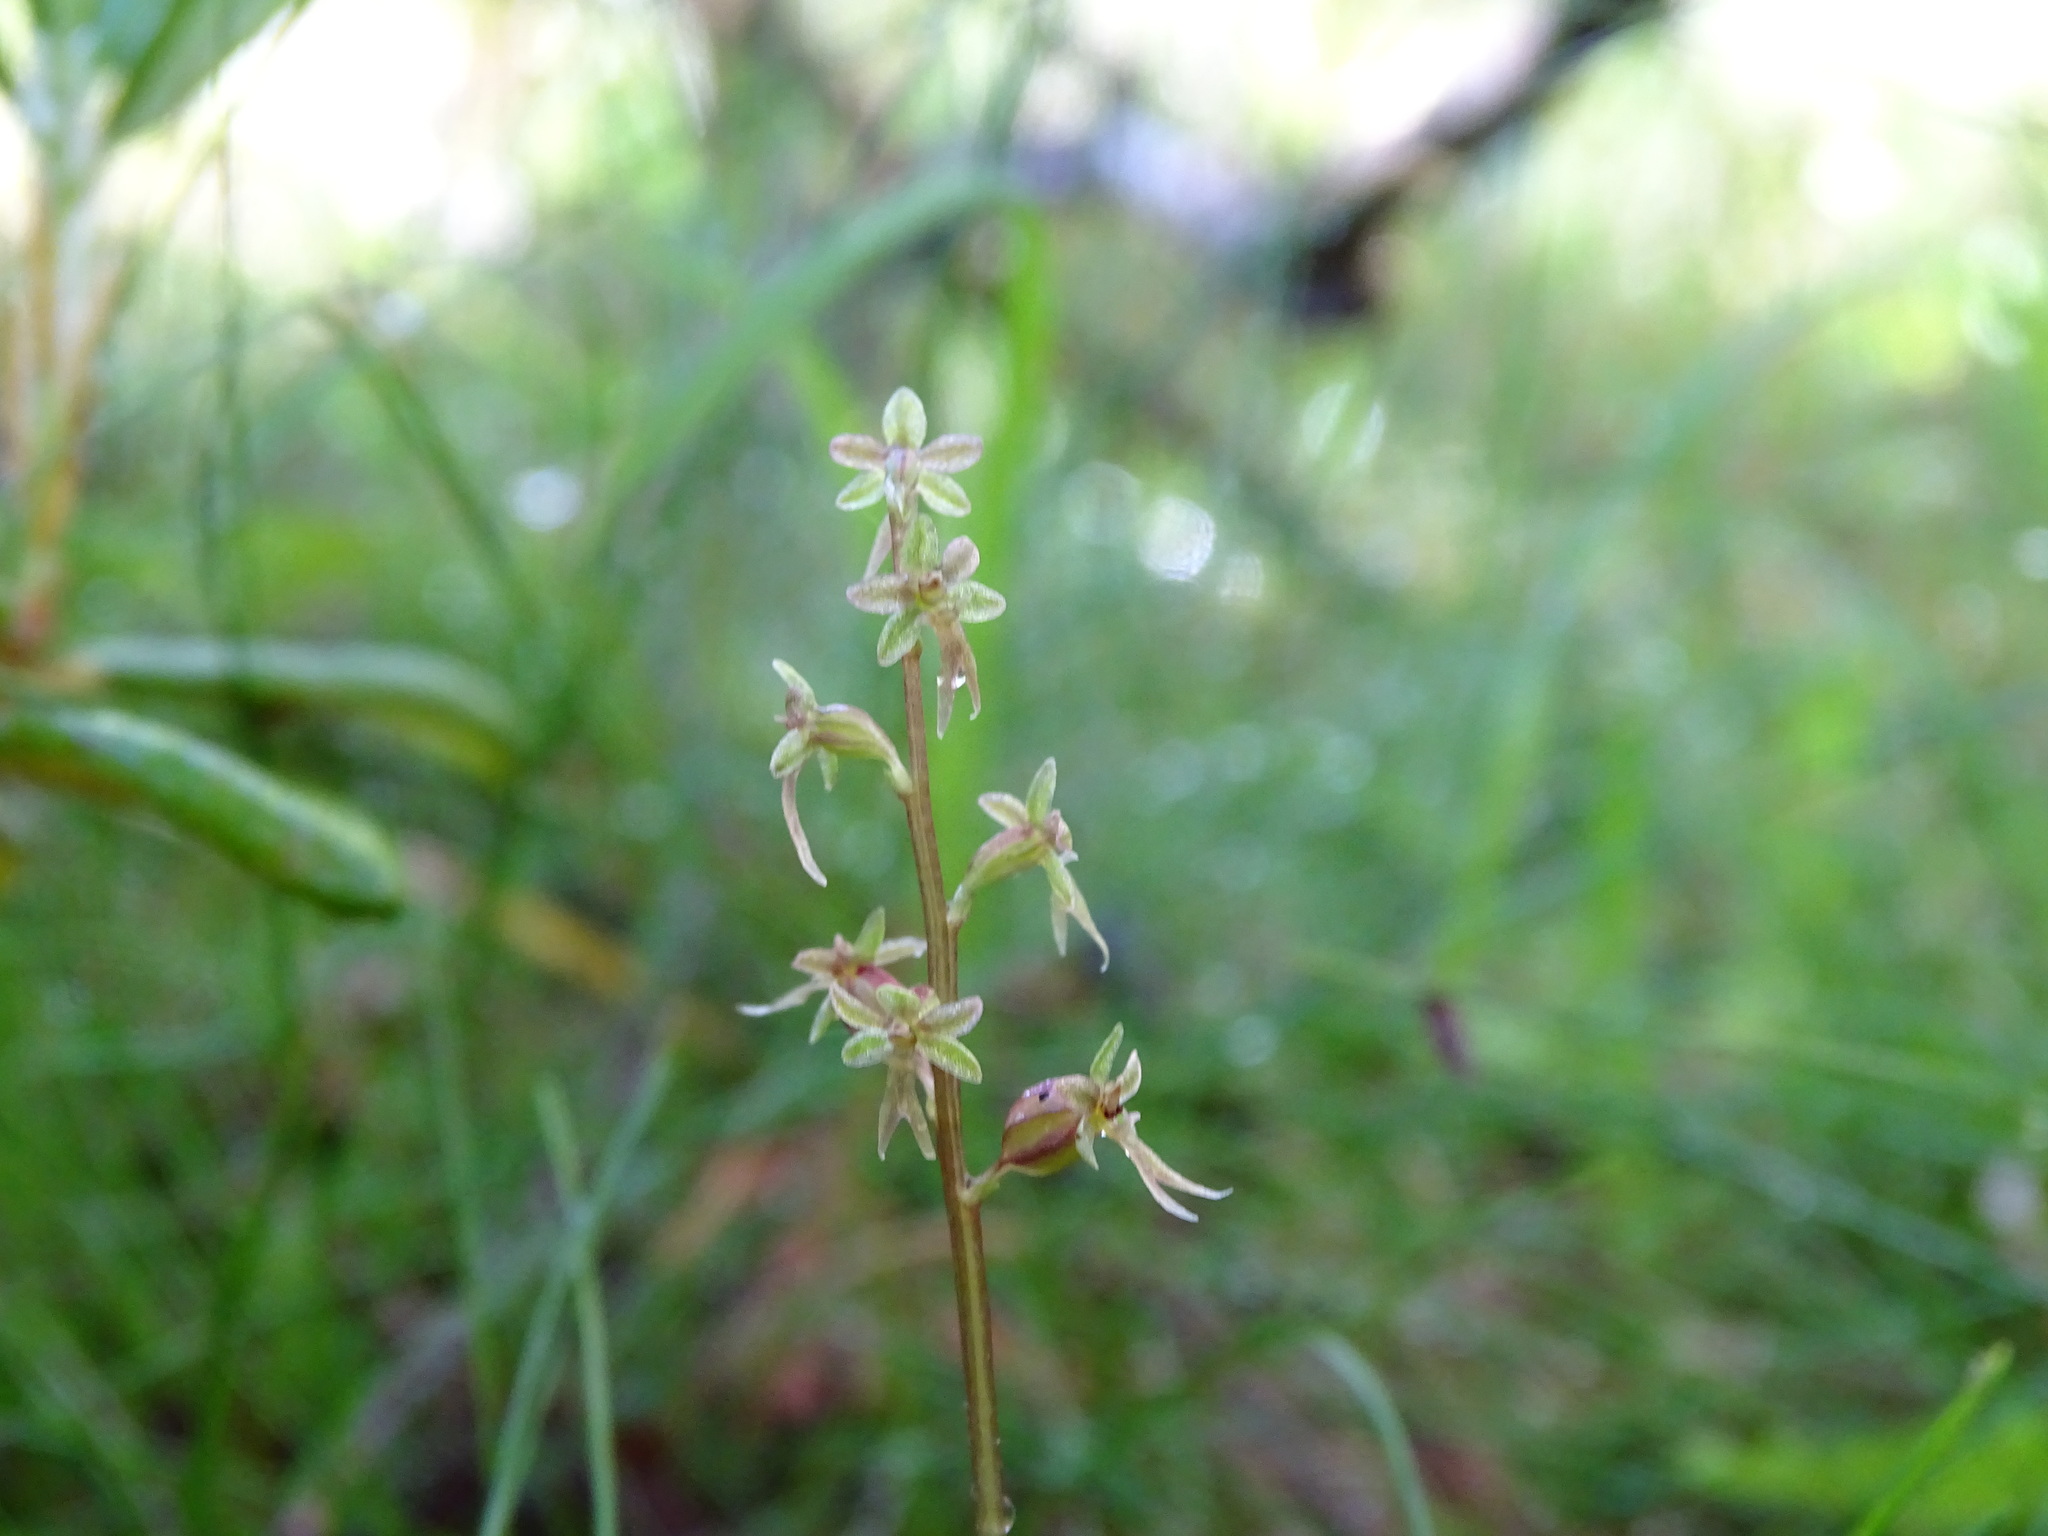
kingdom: Plantae
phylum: Tracheophyta
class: Liliopsida
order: Asparagales
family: Orchidaceae
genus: Neottia
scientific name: Neottia cordata
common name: Lesser twayblade
